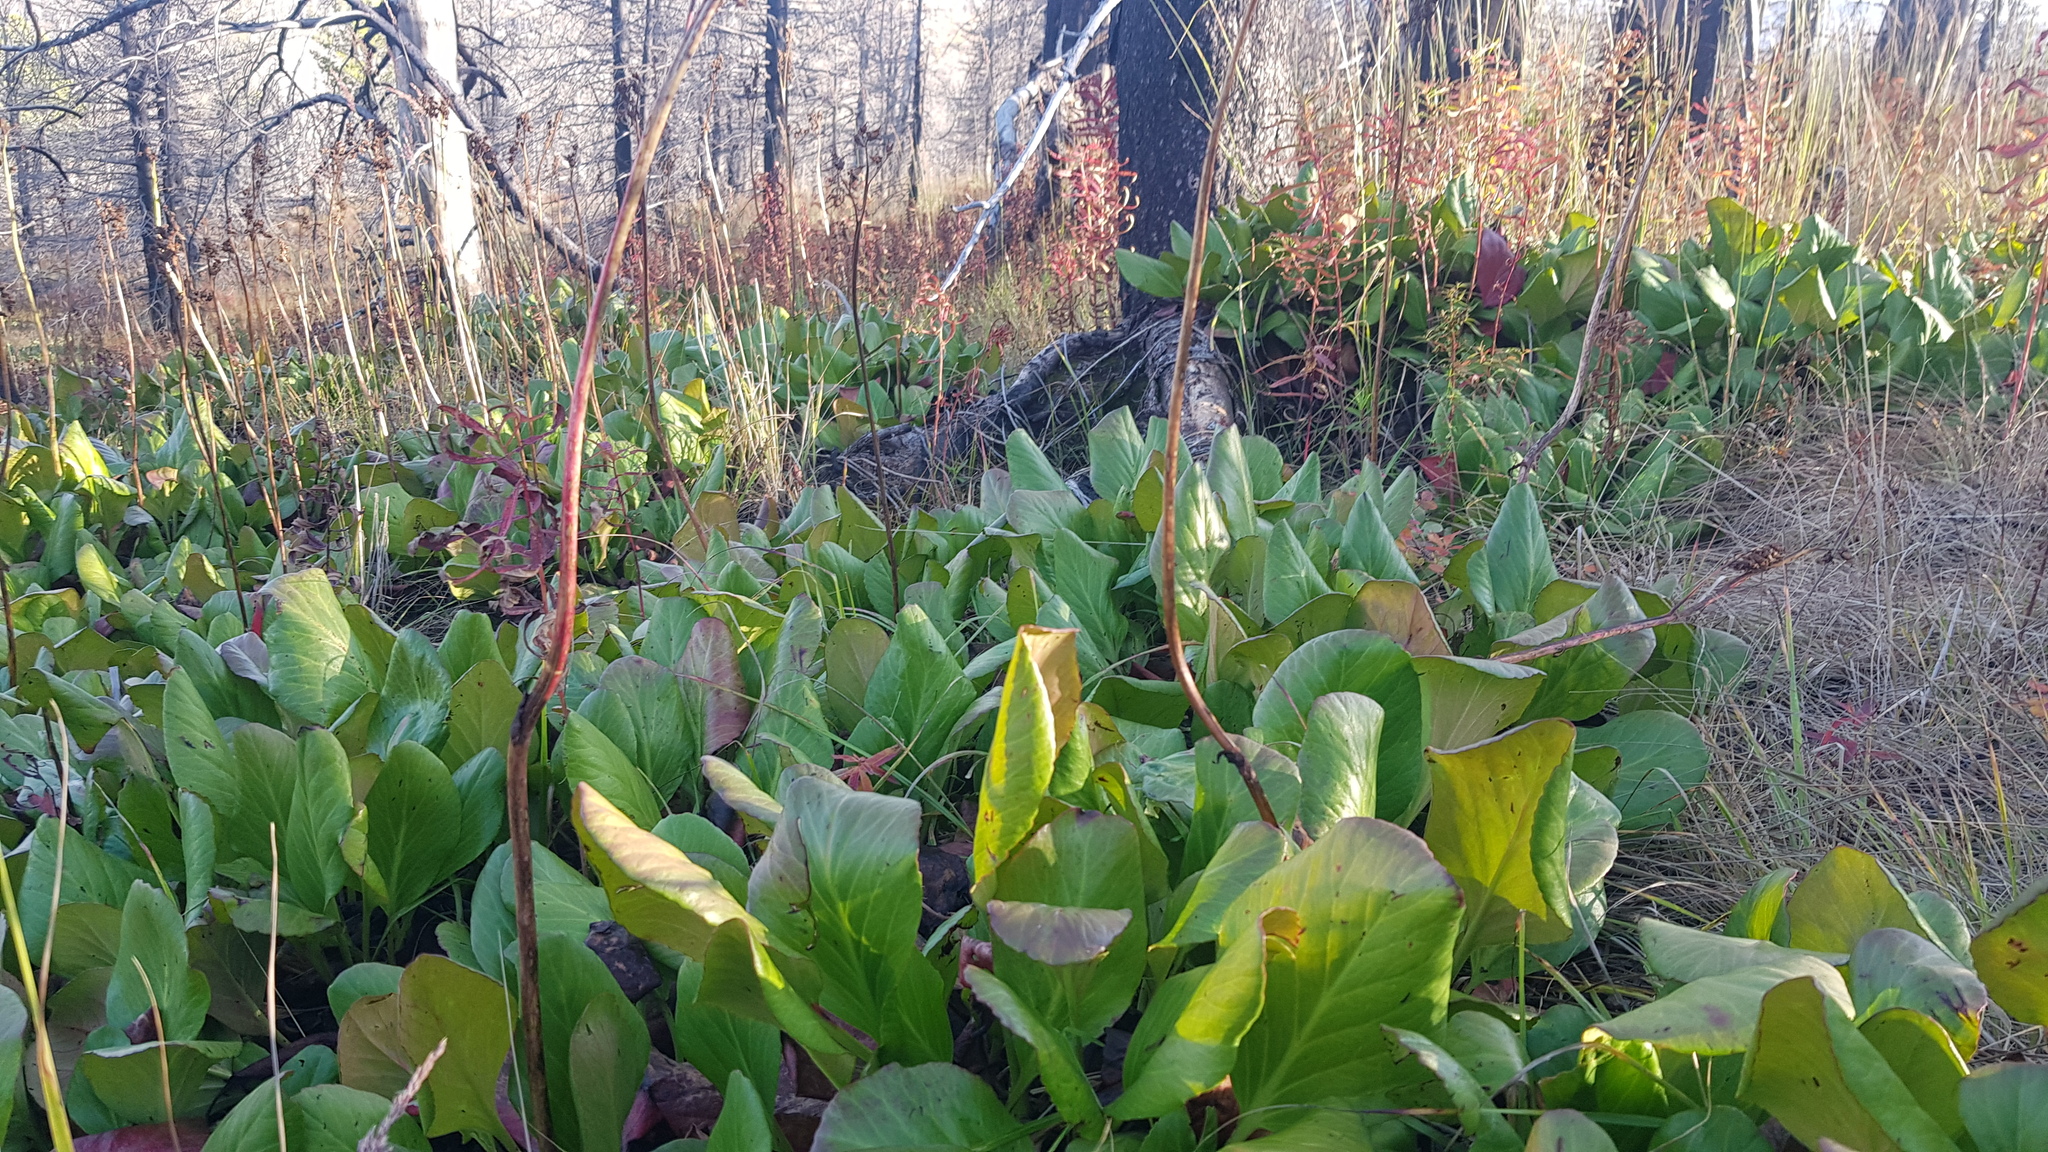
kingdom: Plantae
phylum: Tracheophyta
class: Magnoliopsida
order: Saxifragales
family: Saxifragaceae
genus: Bergenia
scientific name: Bergenia crassifolia
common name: Elephant-ears
